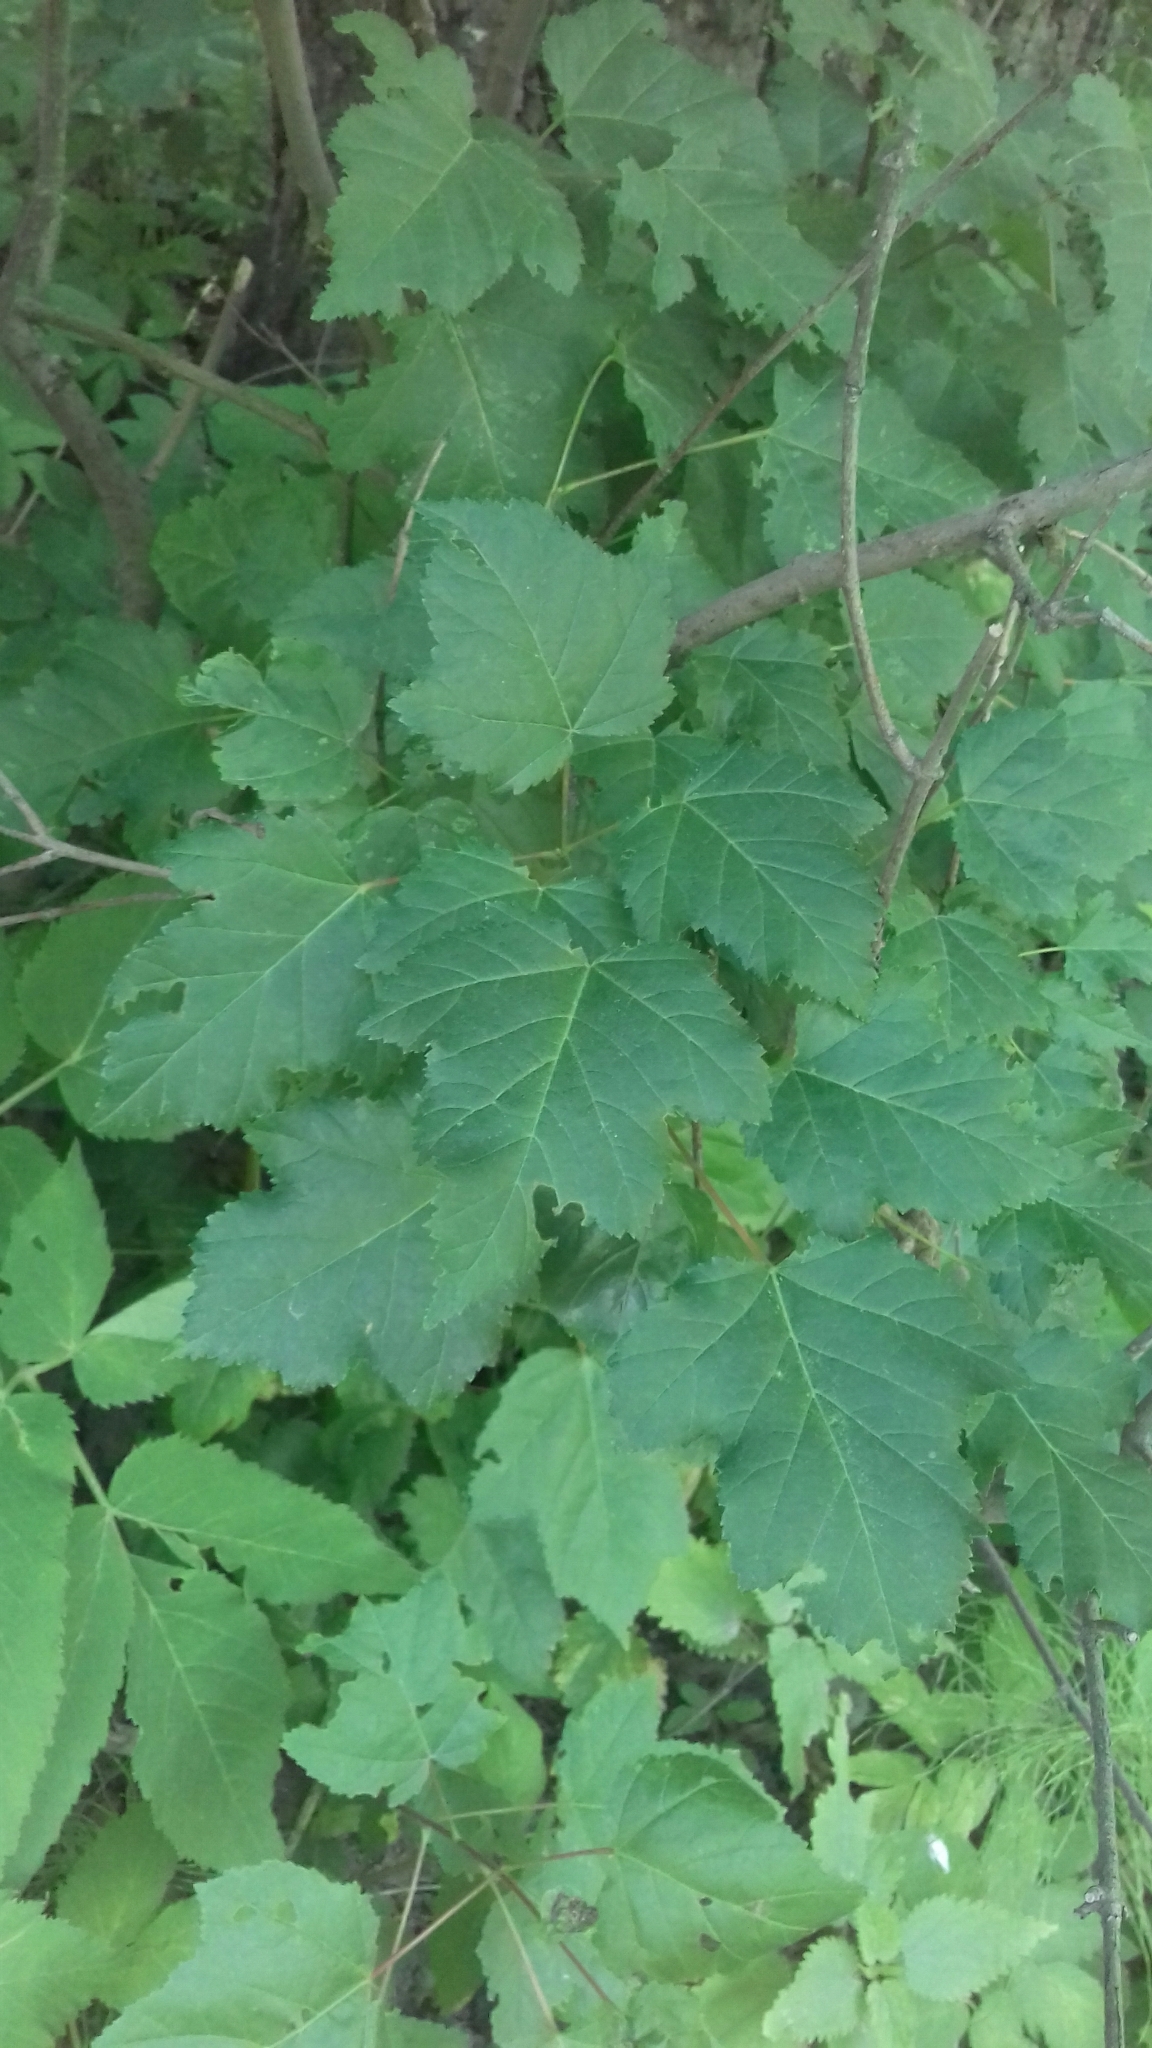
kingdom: Plantae
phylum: Tracheophyta
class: Magnoliopsida
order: Sapindales
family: Sapindaceae
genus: Acer
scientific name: Acer tataricum
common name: Tartar maple
